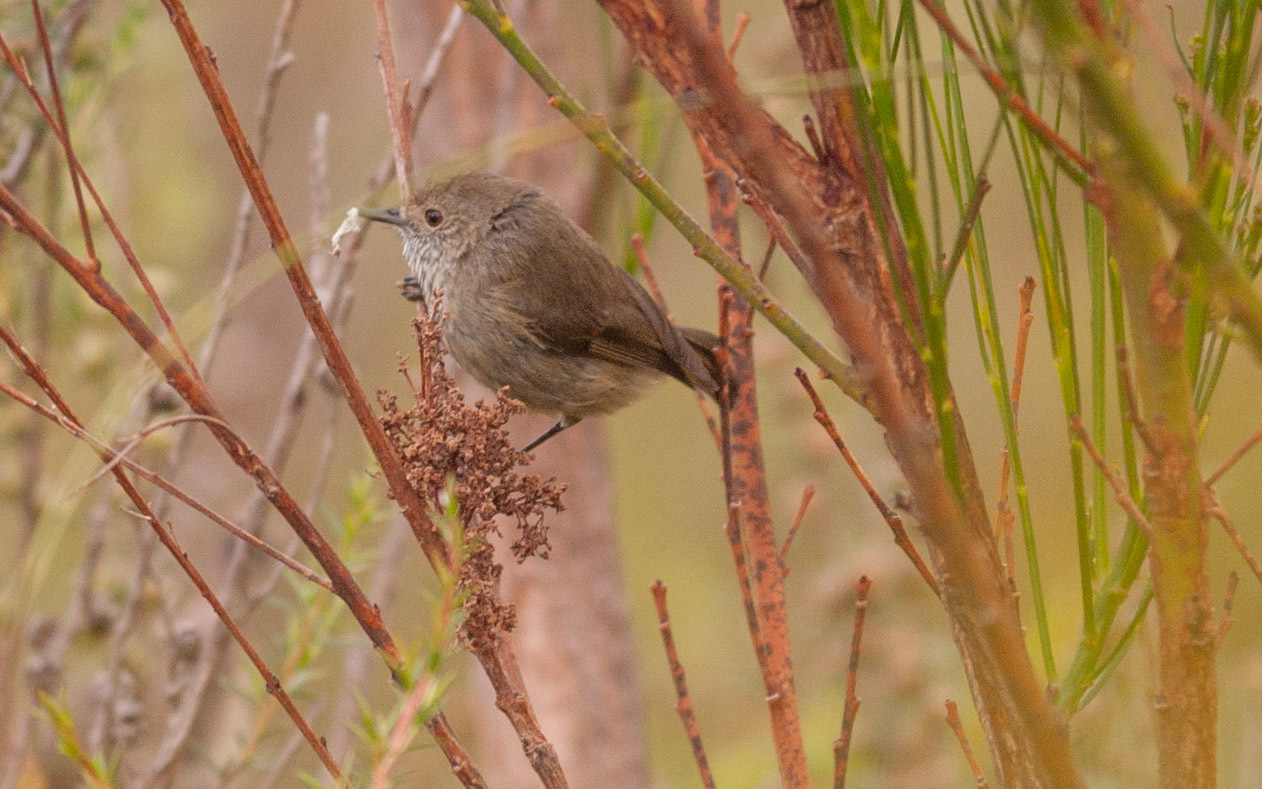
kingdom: Animalia
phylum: Chordata
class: Aves
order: Passeriformes
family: Acanthizidae
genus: Acanthiza
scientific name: Acanthiza pusilla
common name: Brown thornbill
